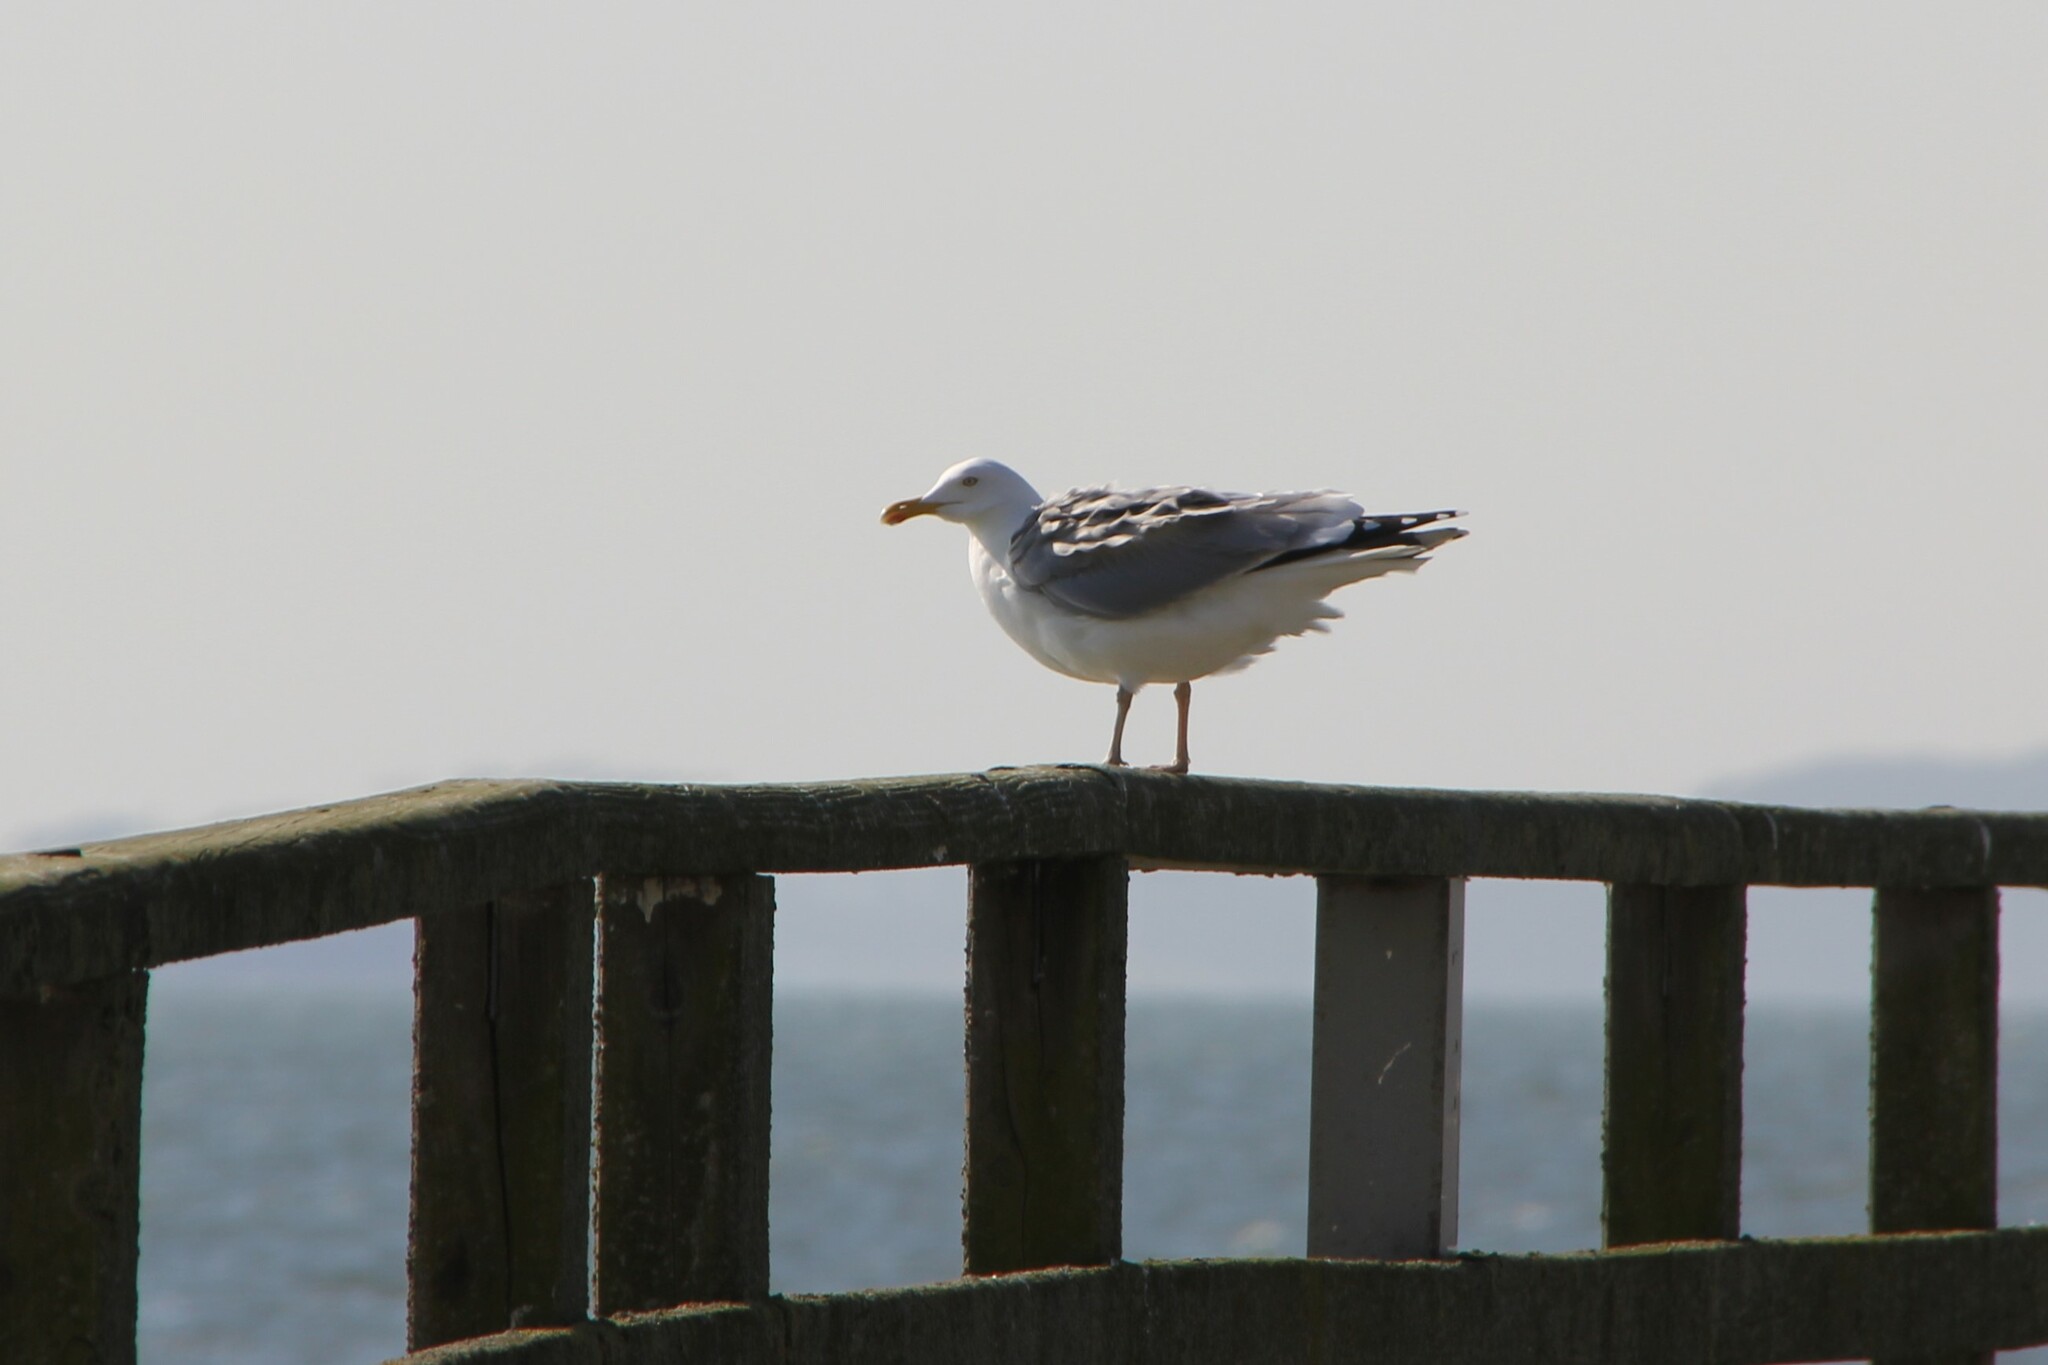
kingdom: Animalia
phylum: Chordata
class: Aves
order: Charadriiformes
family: Laridae
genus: Larus
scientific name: Larus argentatus
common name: Herring gull
